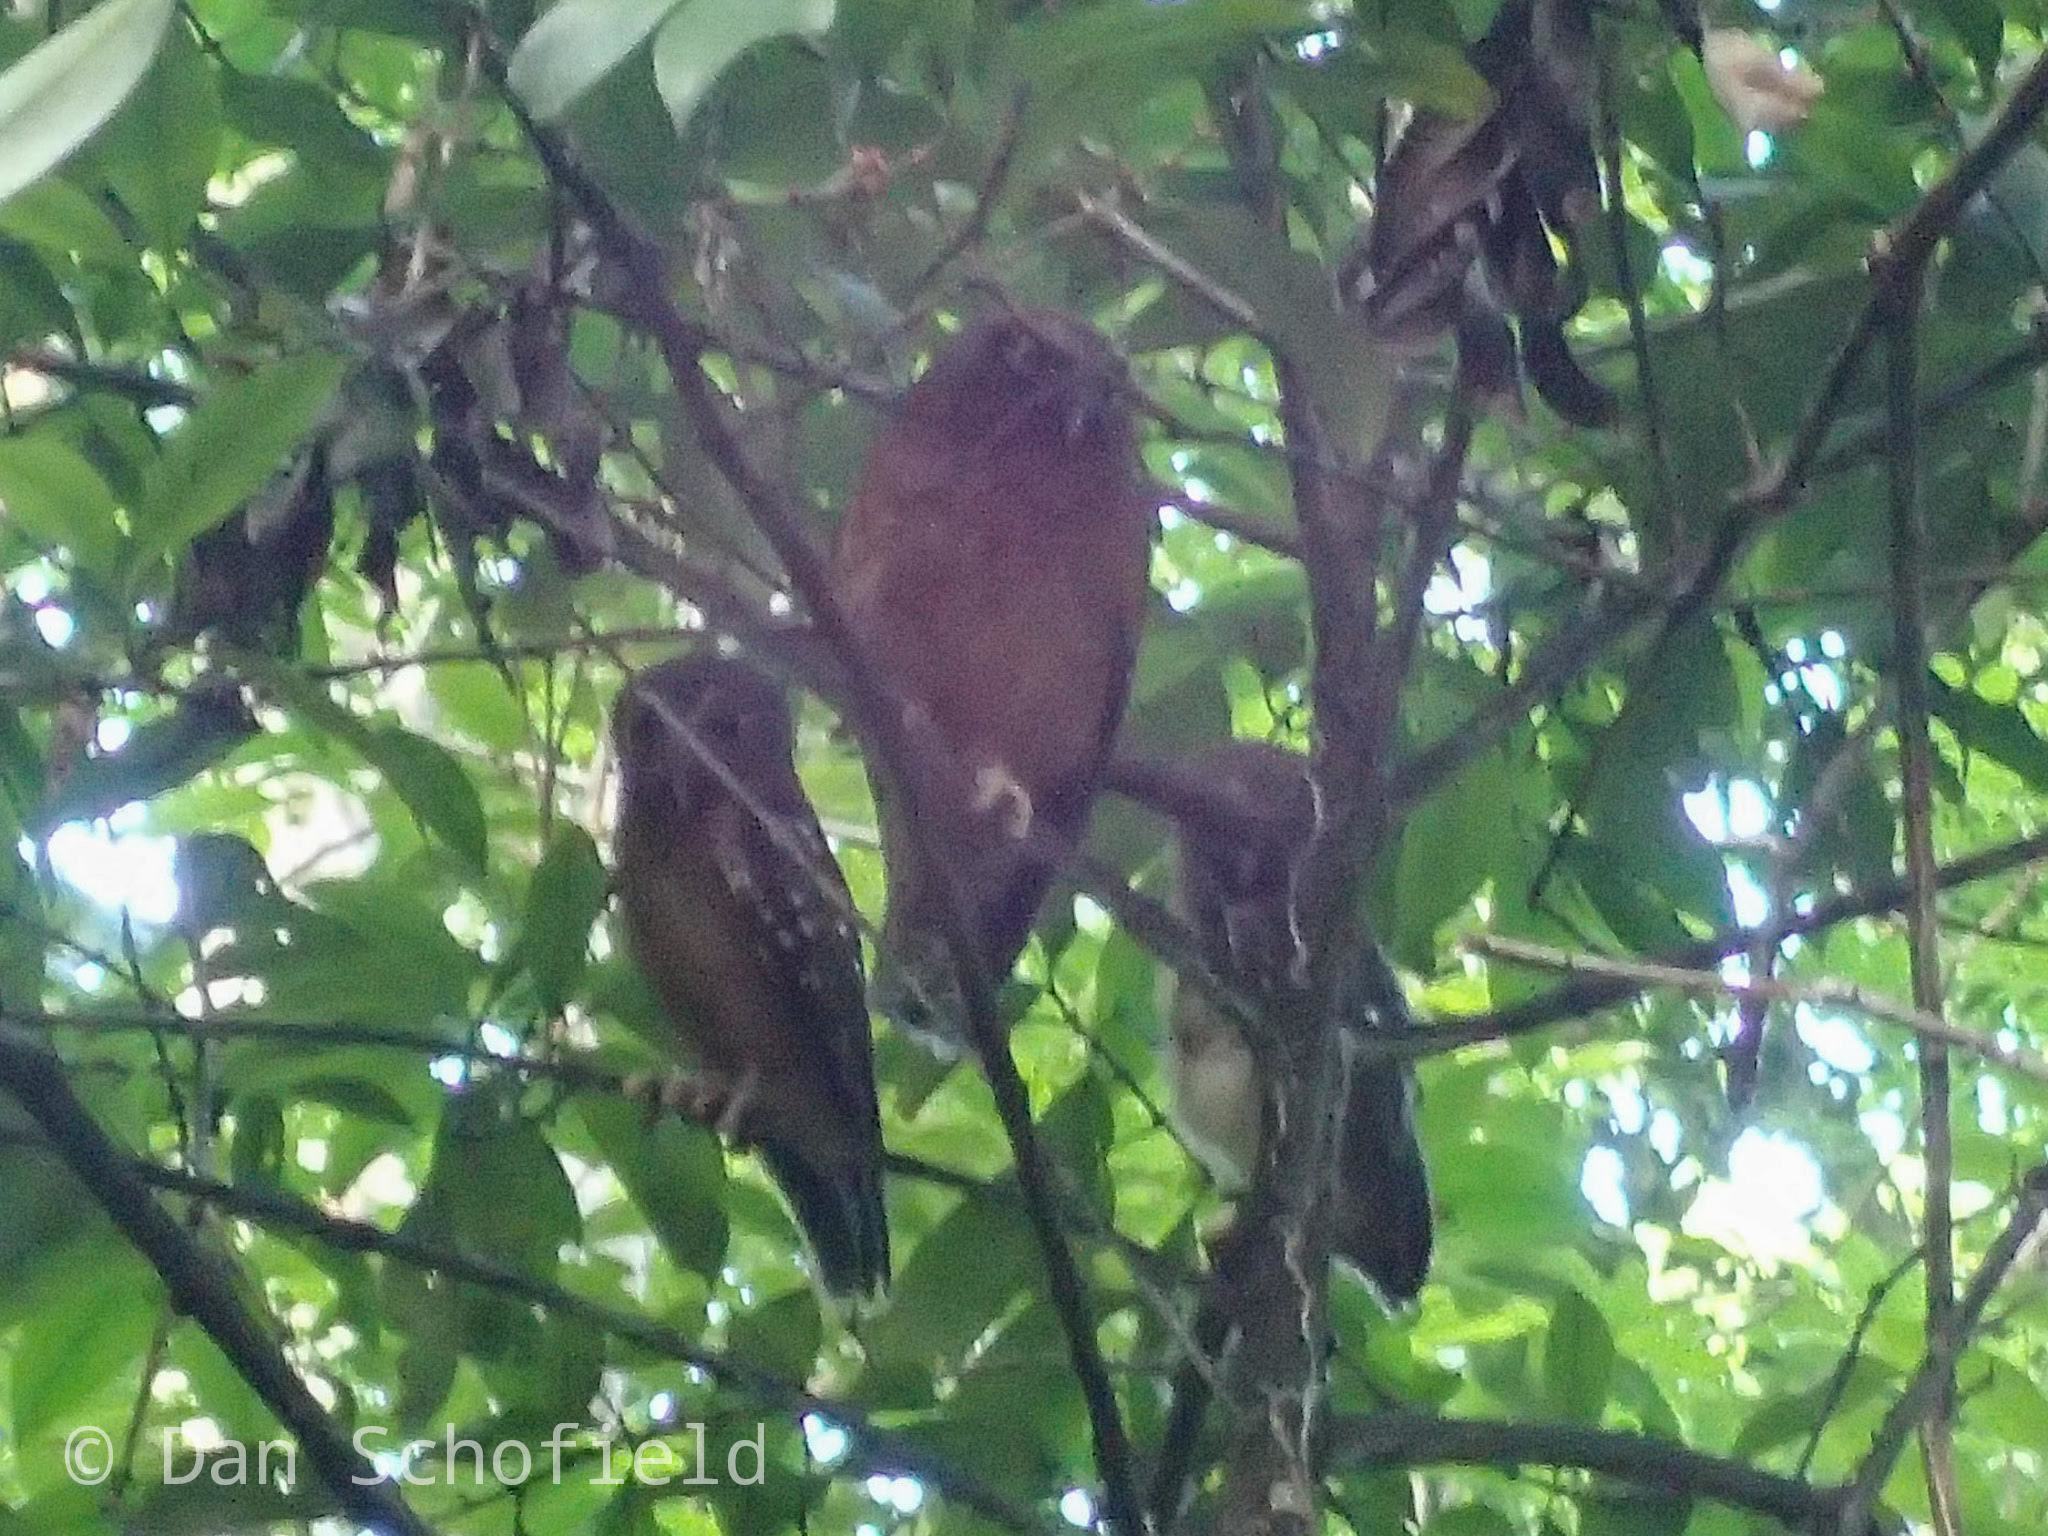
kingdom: Animalia
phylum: Chordata
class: Aves
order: Strigiformes
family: Strigidae
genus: Ninox
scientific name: Ninox ochracea
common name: Ochre-bellied boobook
